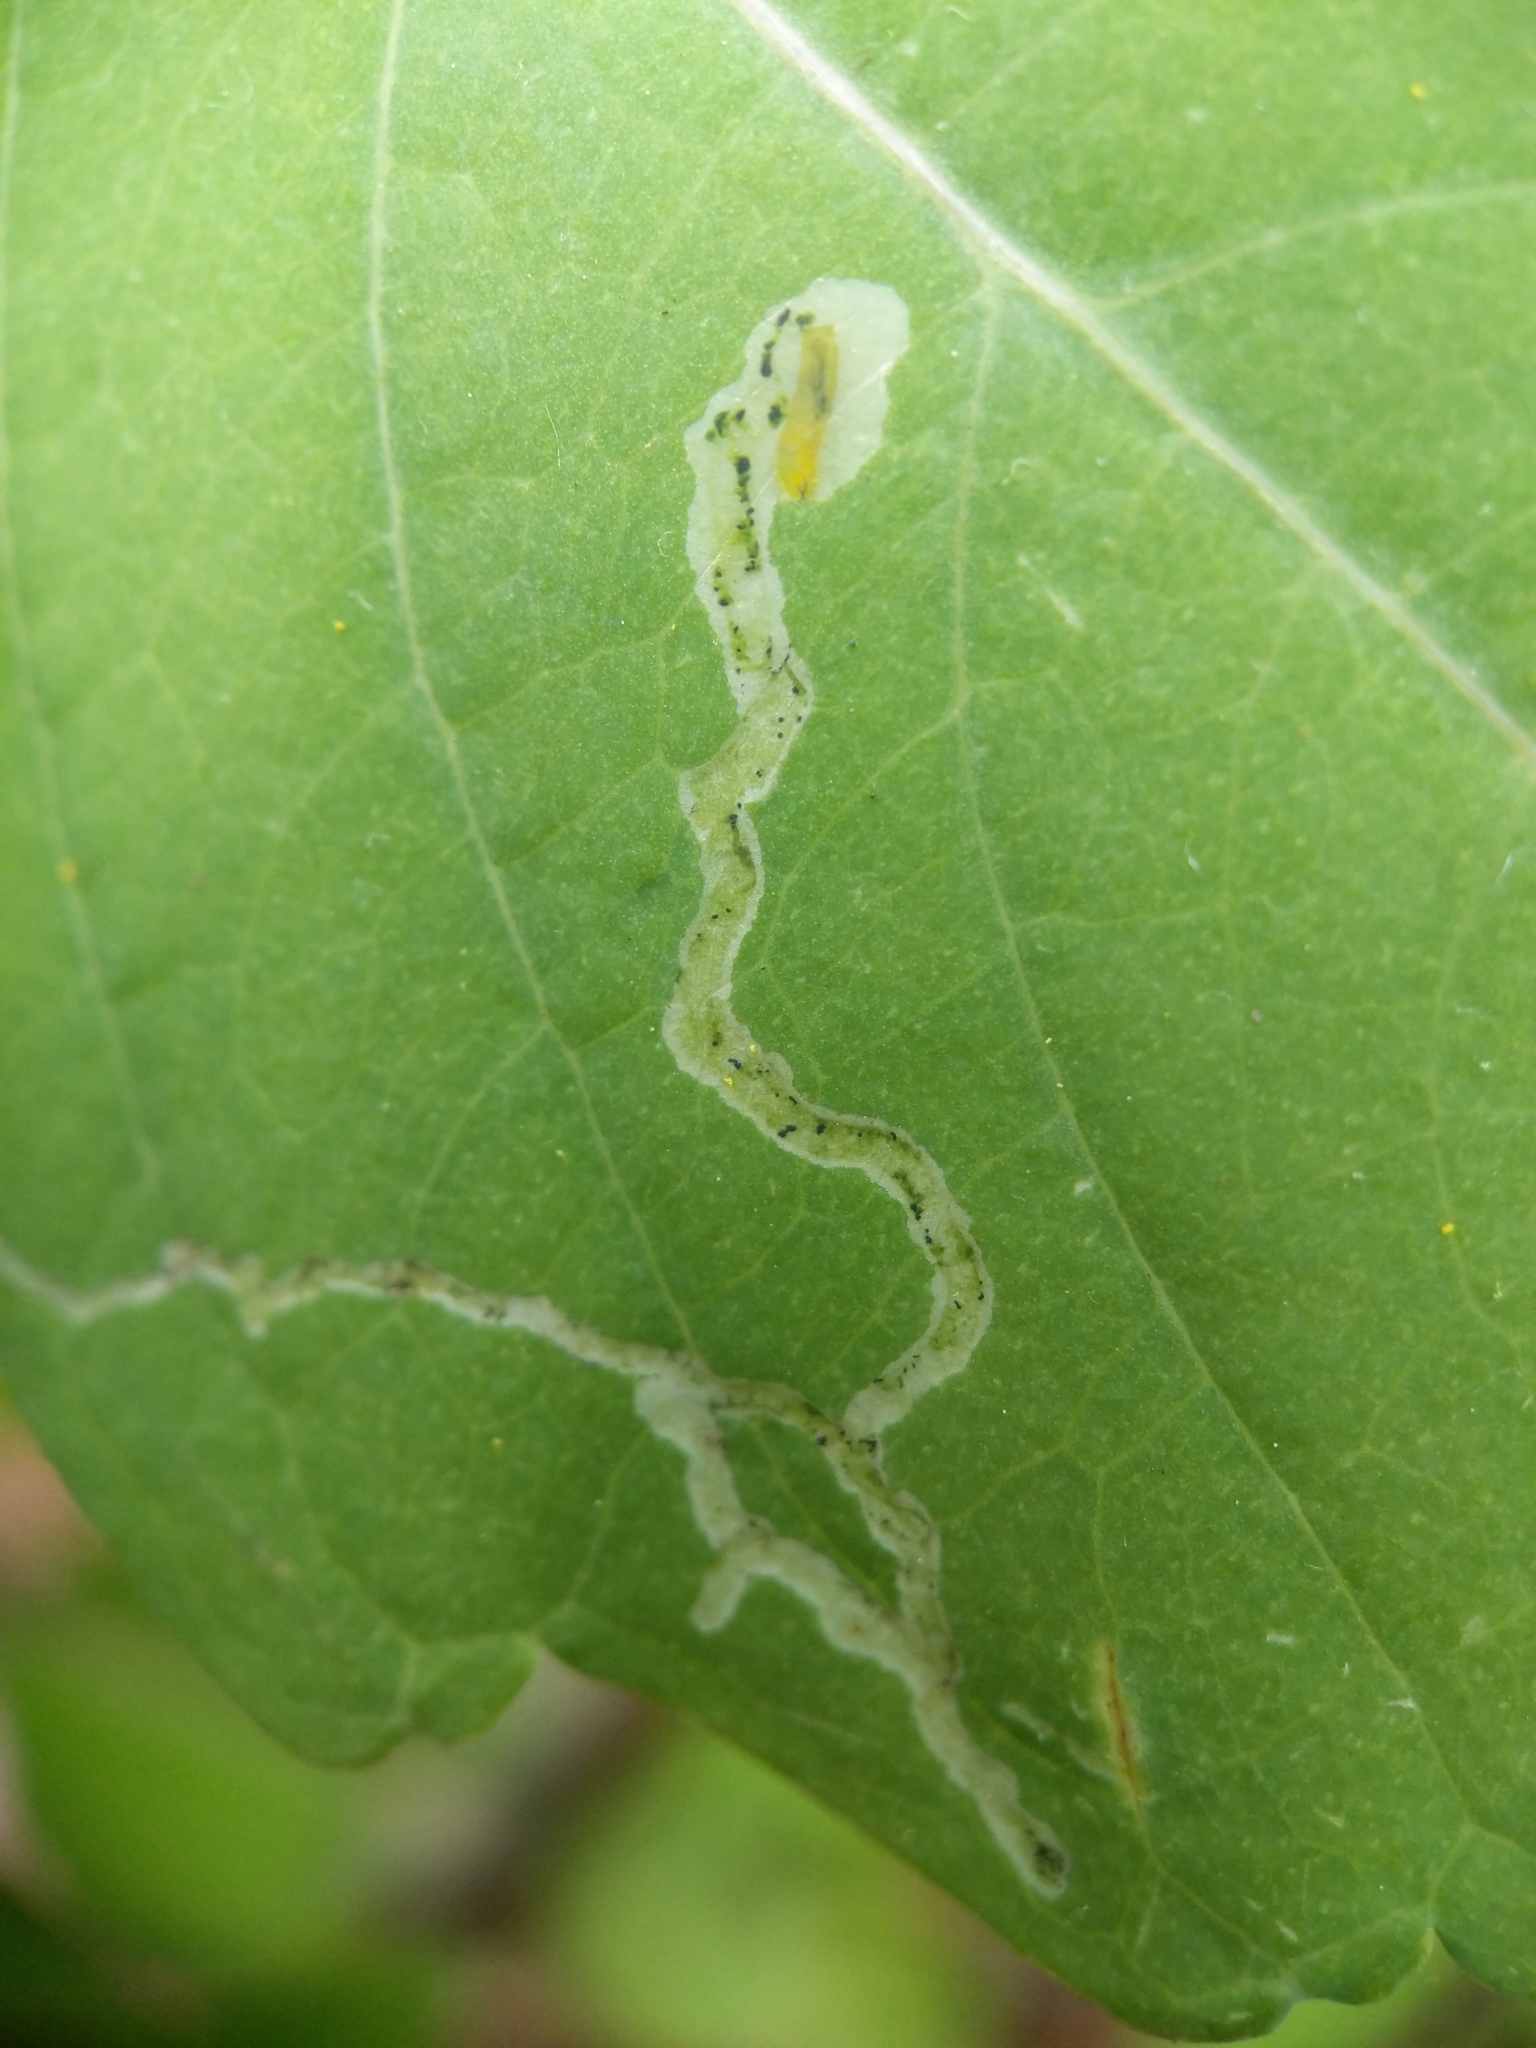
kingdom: Animalia
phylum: Arthropoda
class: Insecta
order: Diptera
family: Agromyzidae
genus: Phytoliriomyza
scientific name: Phytoliriomyza melampyga
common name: Jewelweed leaf-miner fly
